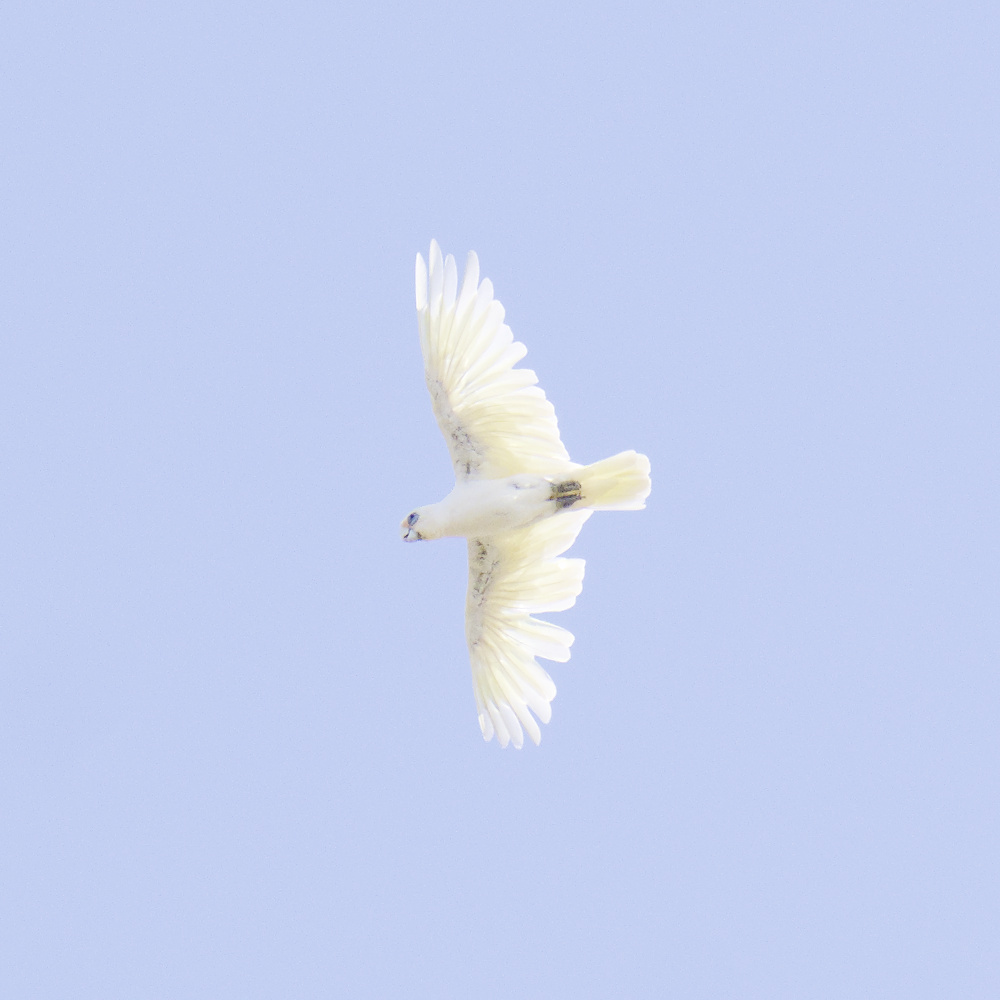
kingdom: Animalia
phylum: Chordata
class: Aves
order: Psittaciformes
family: Psittacidae
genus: Cacatua
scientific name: Cacatua sanguinea
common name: Little corella
